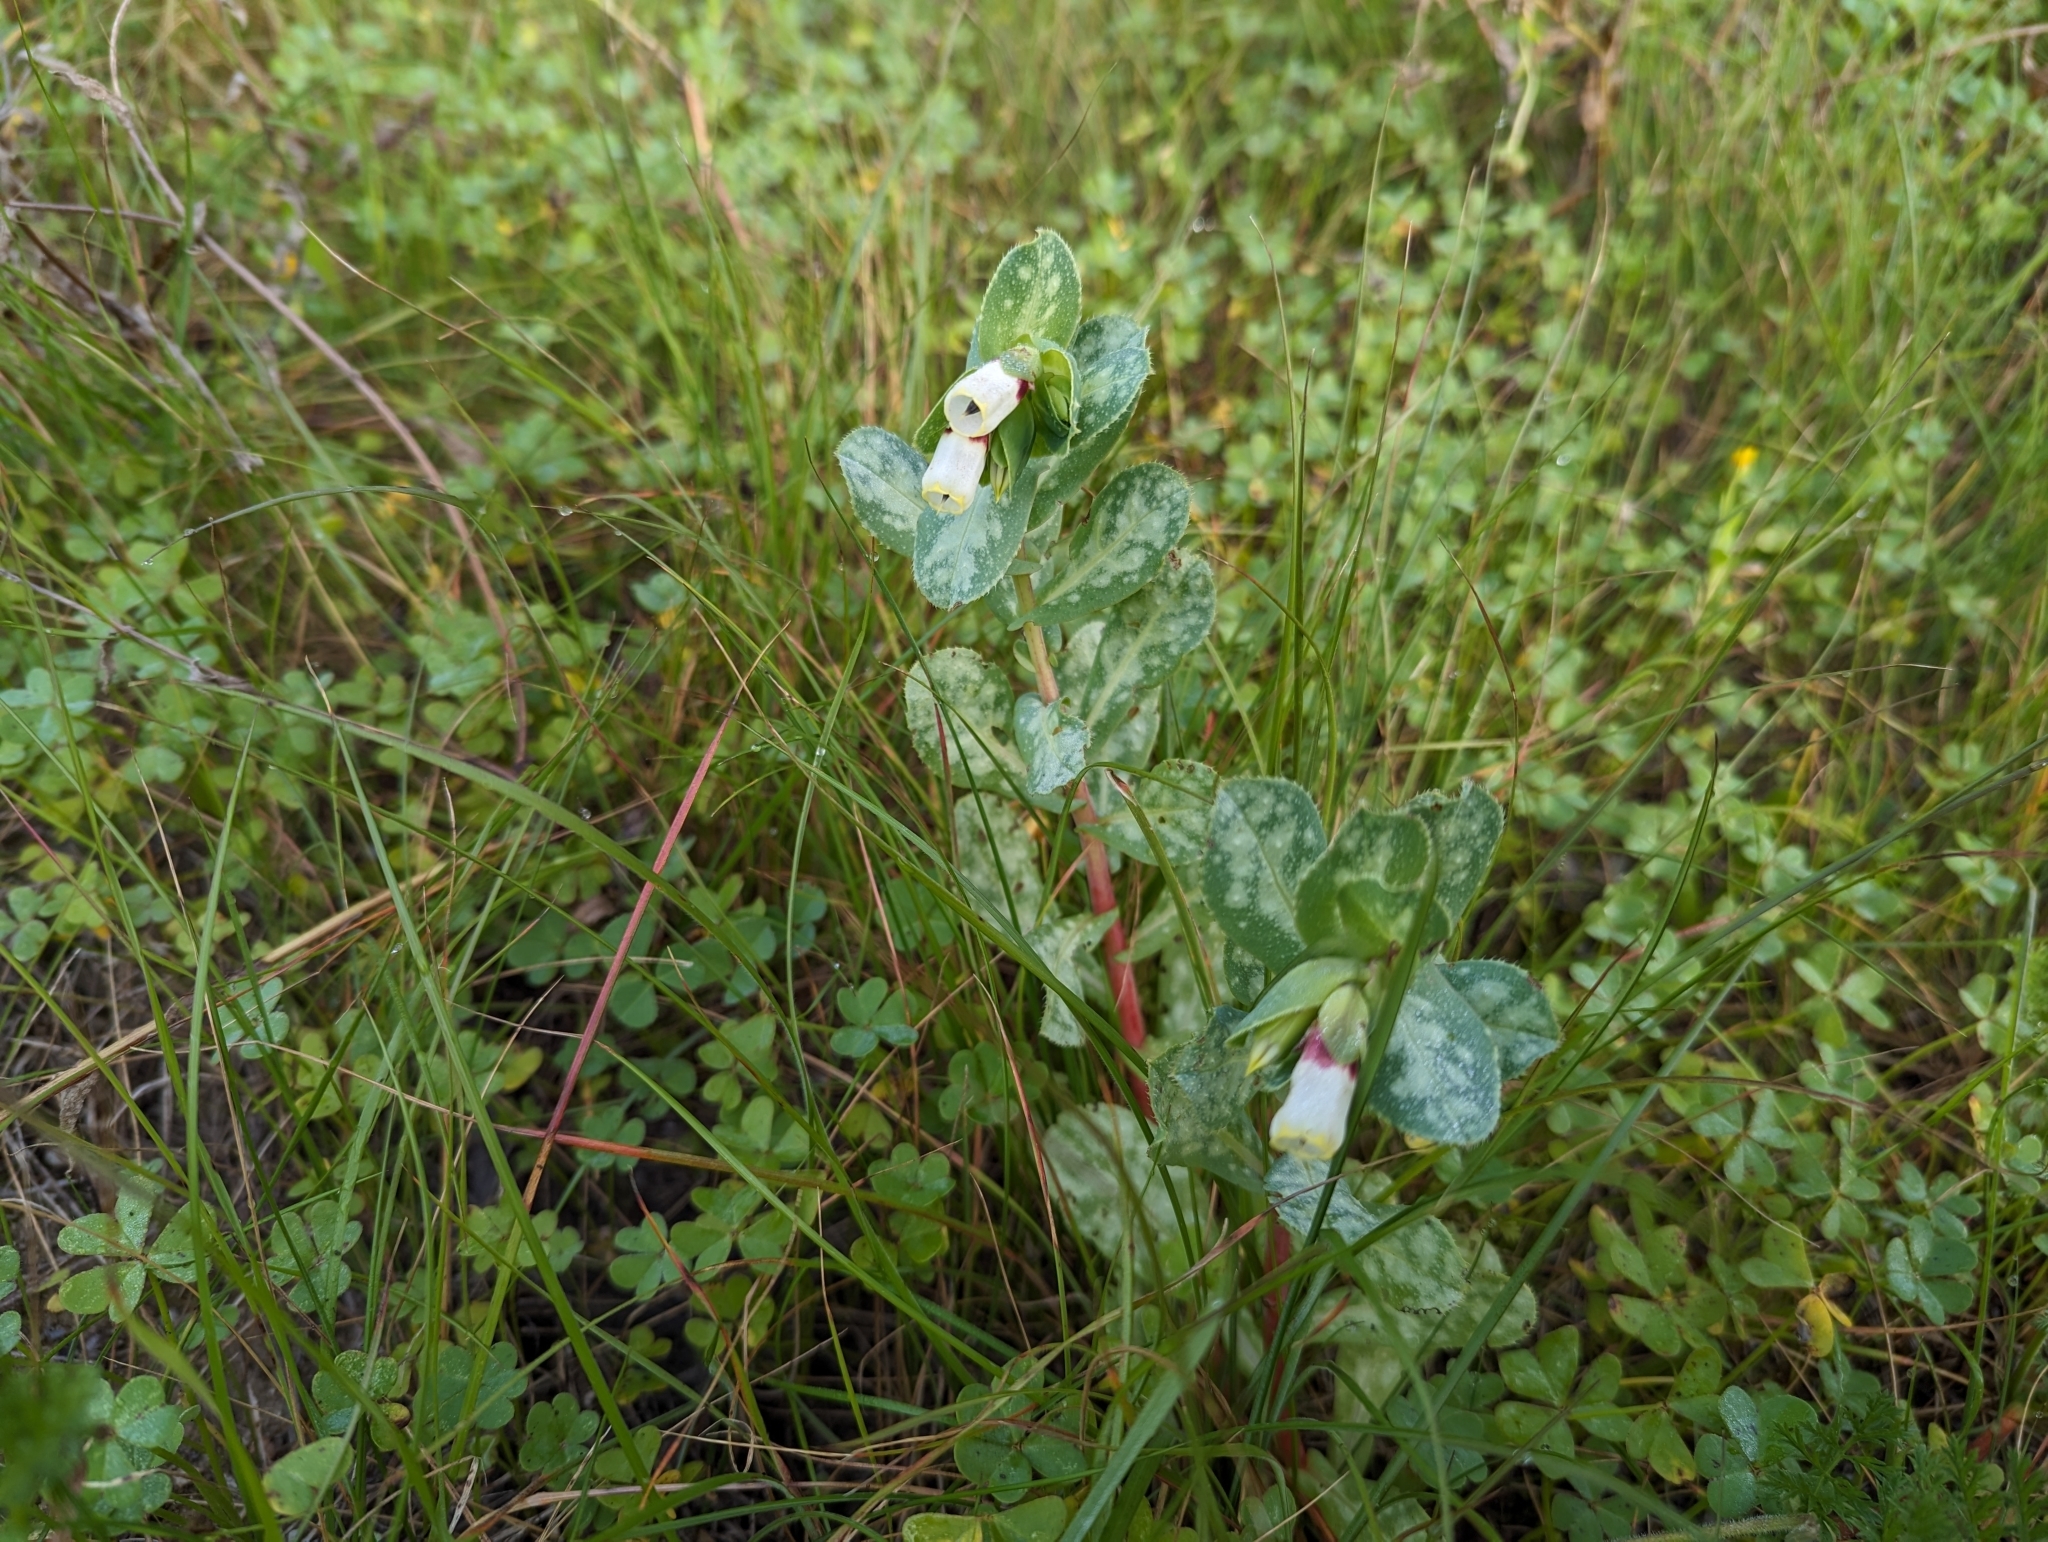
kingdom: Plantae
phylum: Tracheophyta
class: Magnoliopsida
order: Boraginales
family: Boraginaceae
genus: Cerinthe
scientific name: Cerinthe major
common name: Greater honeywort
